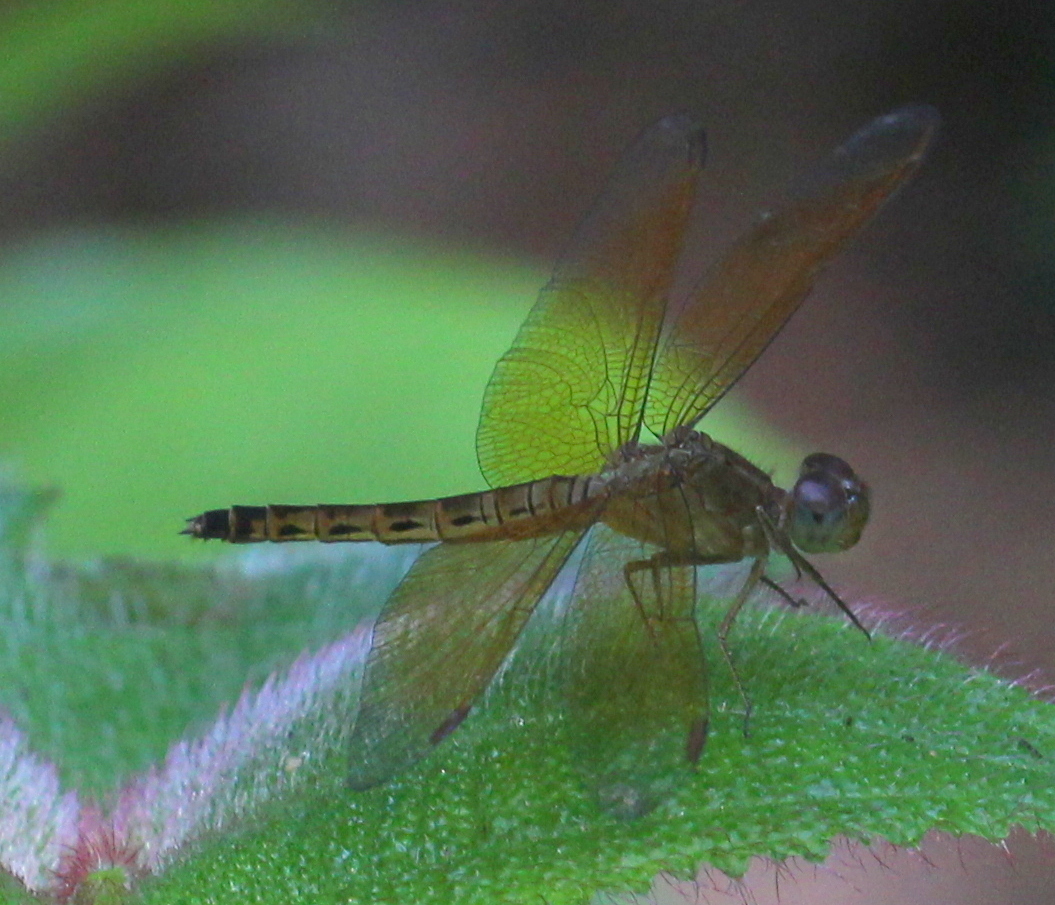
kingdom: Animalia
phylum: Arthropoda
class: Insecta
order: Odonata
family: Libellulidae
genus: Neurothemis
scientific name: Neurothemis fluctuans
